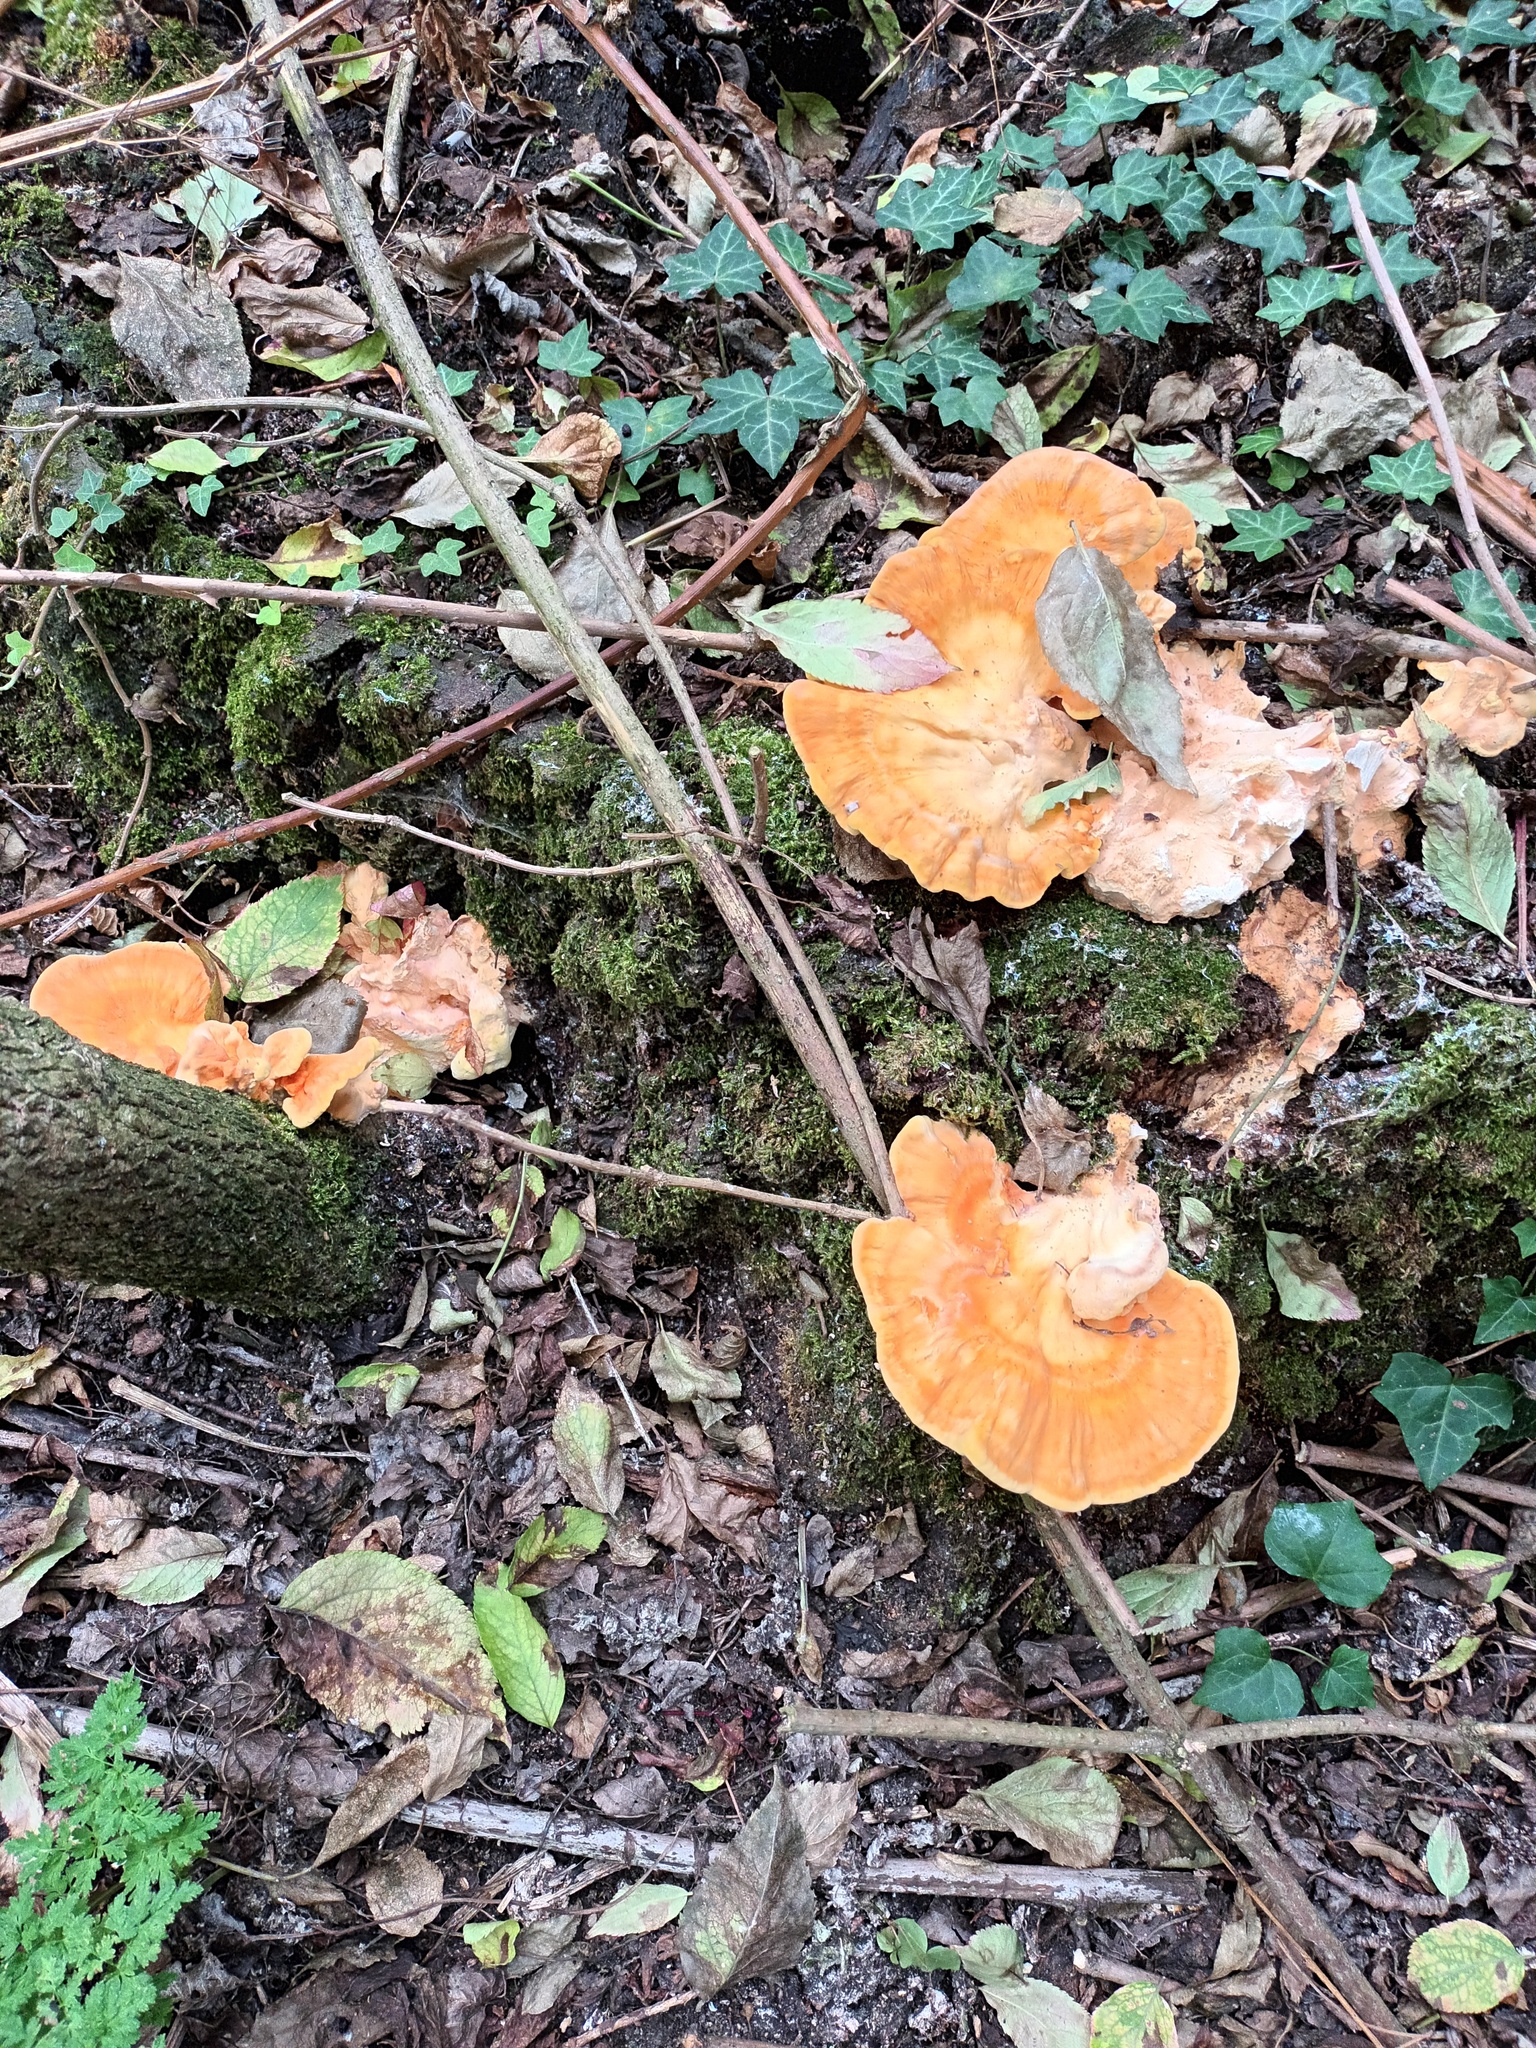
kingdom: Fungi
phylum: Basidiomycota
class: Agaricomycetes
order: Polyporales
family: Laetiporaceae
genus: Laetiporus
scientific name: Laetiporus sulphureus
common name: Chicken of the woods
